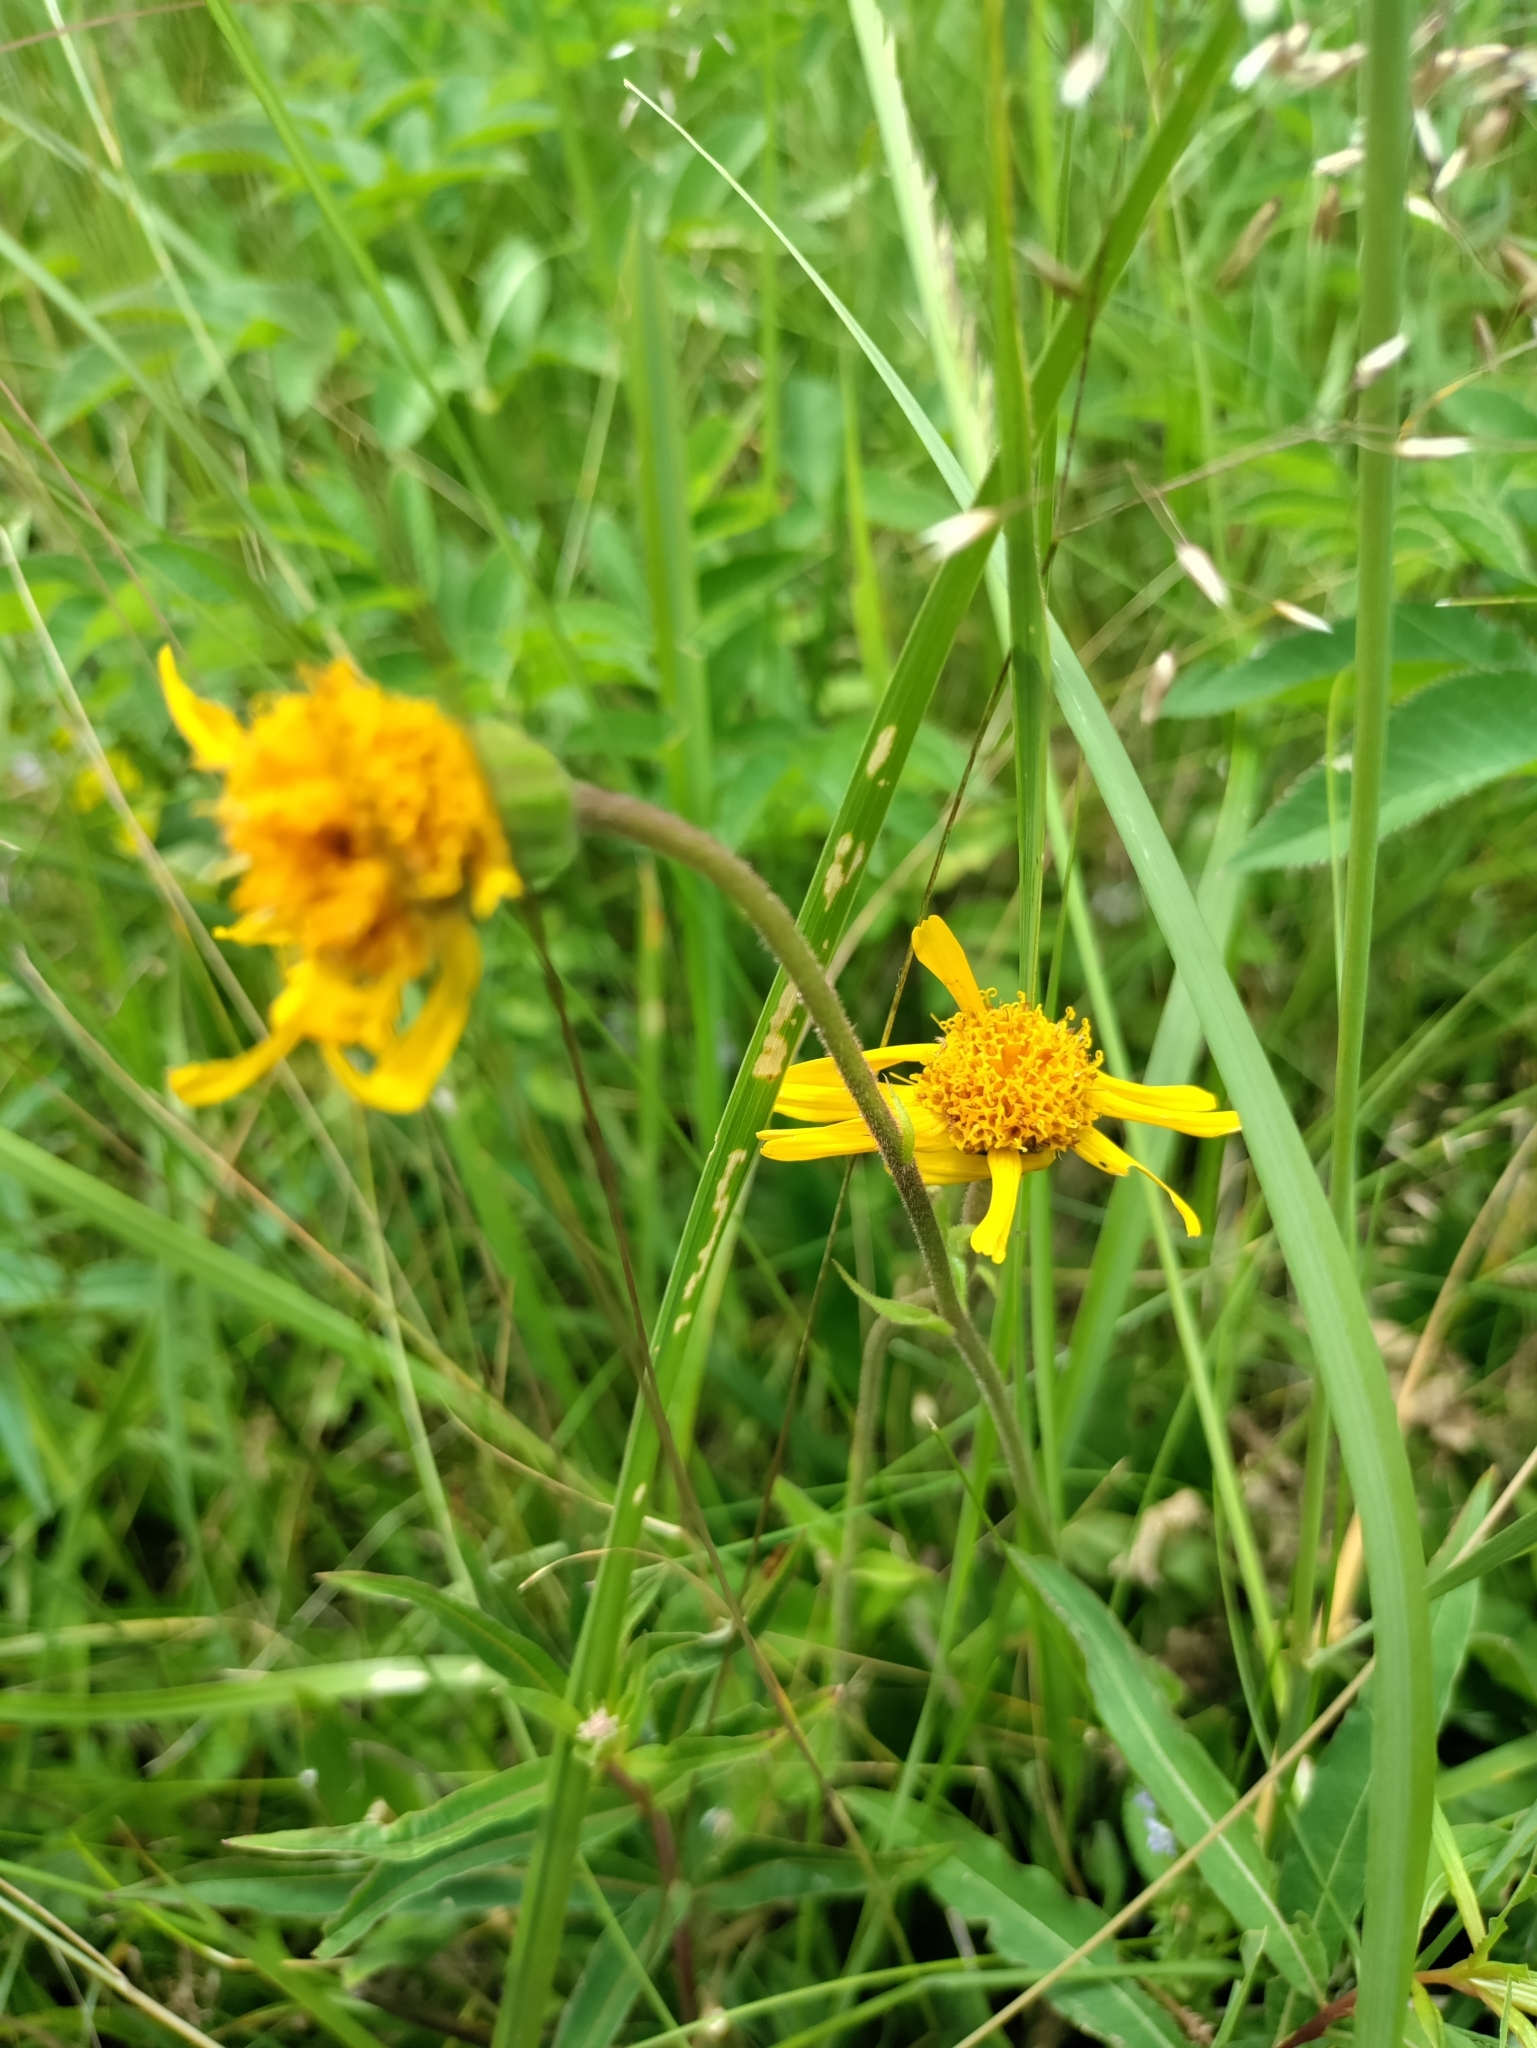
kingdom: Plantae
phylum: Tracheophyta
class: Magnoliopsida
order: Asterales
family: Asteraceae
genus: Arnica
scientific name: Arnica montana
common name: Leopard's bane
